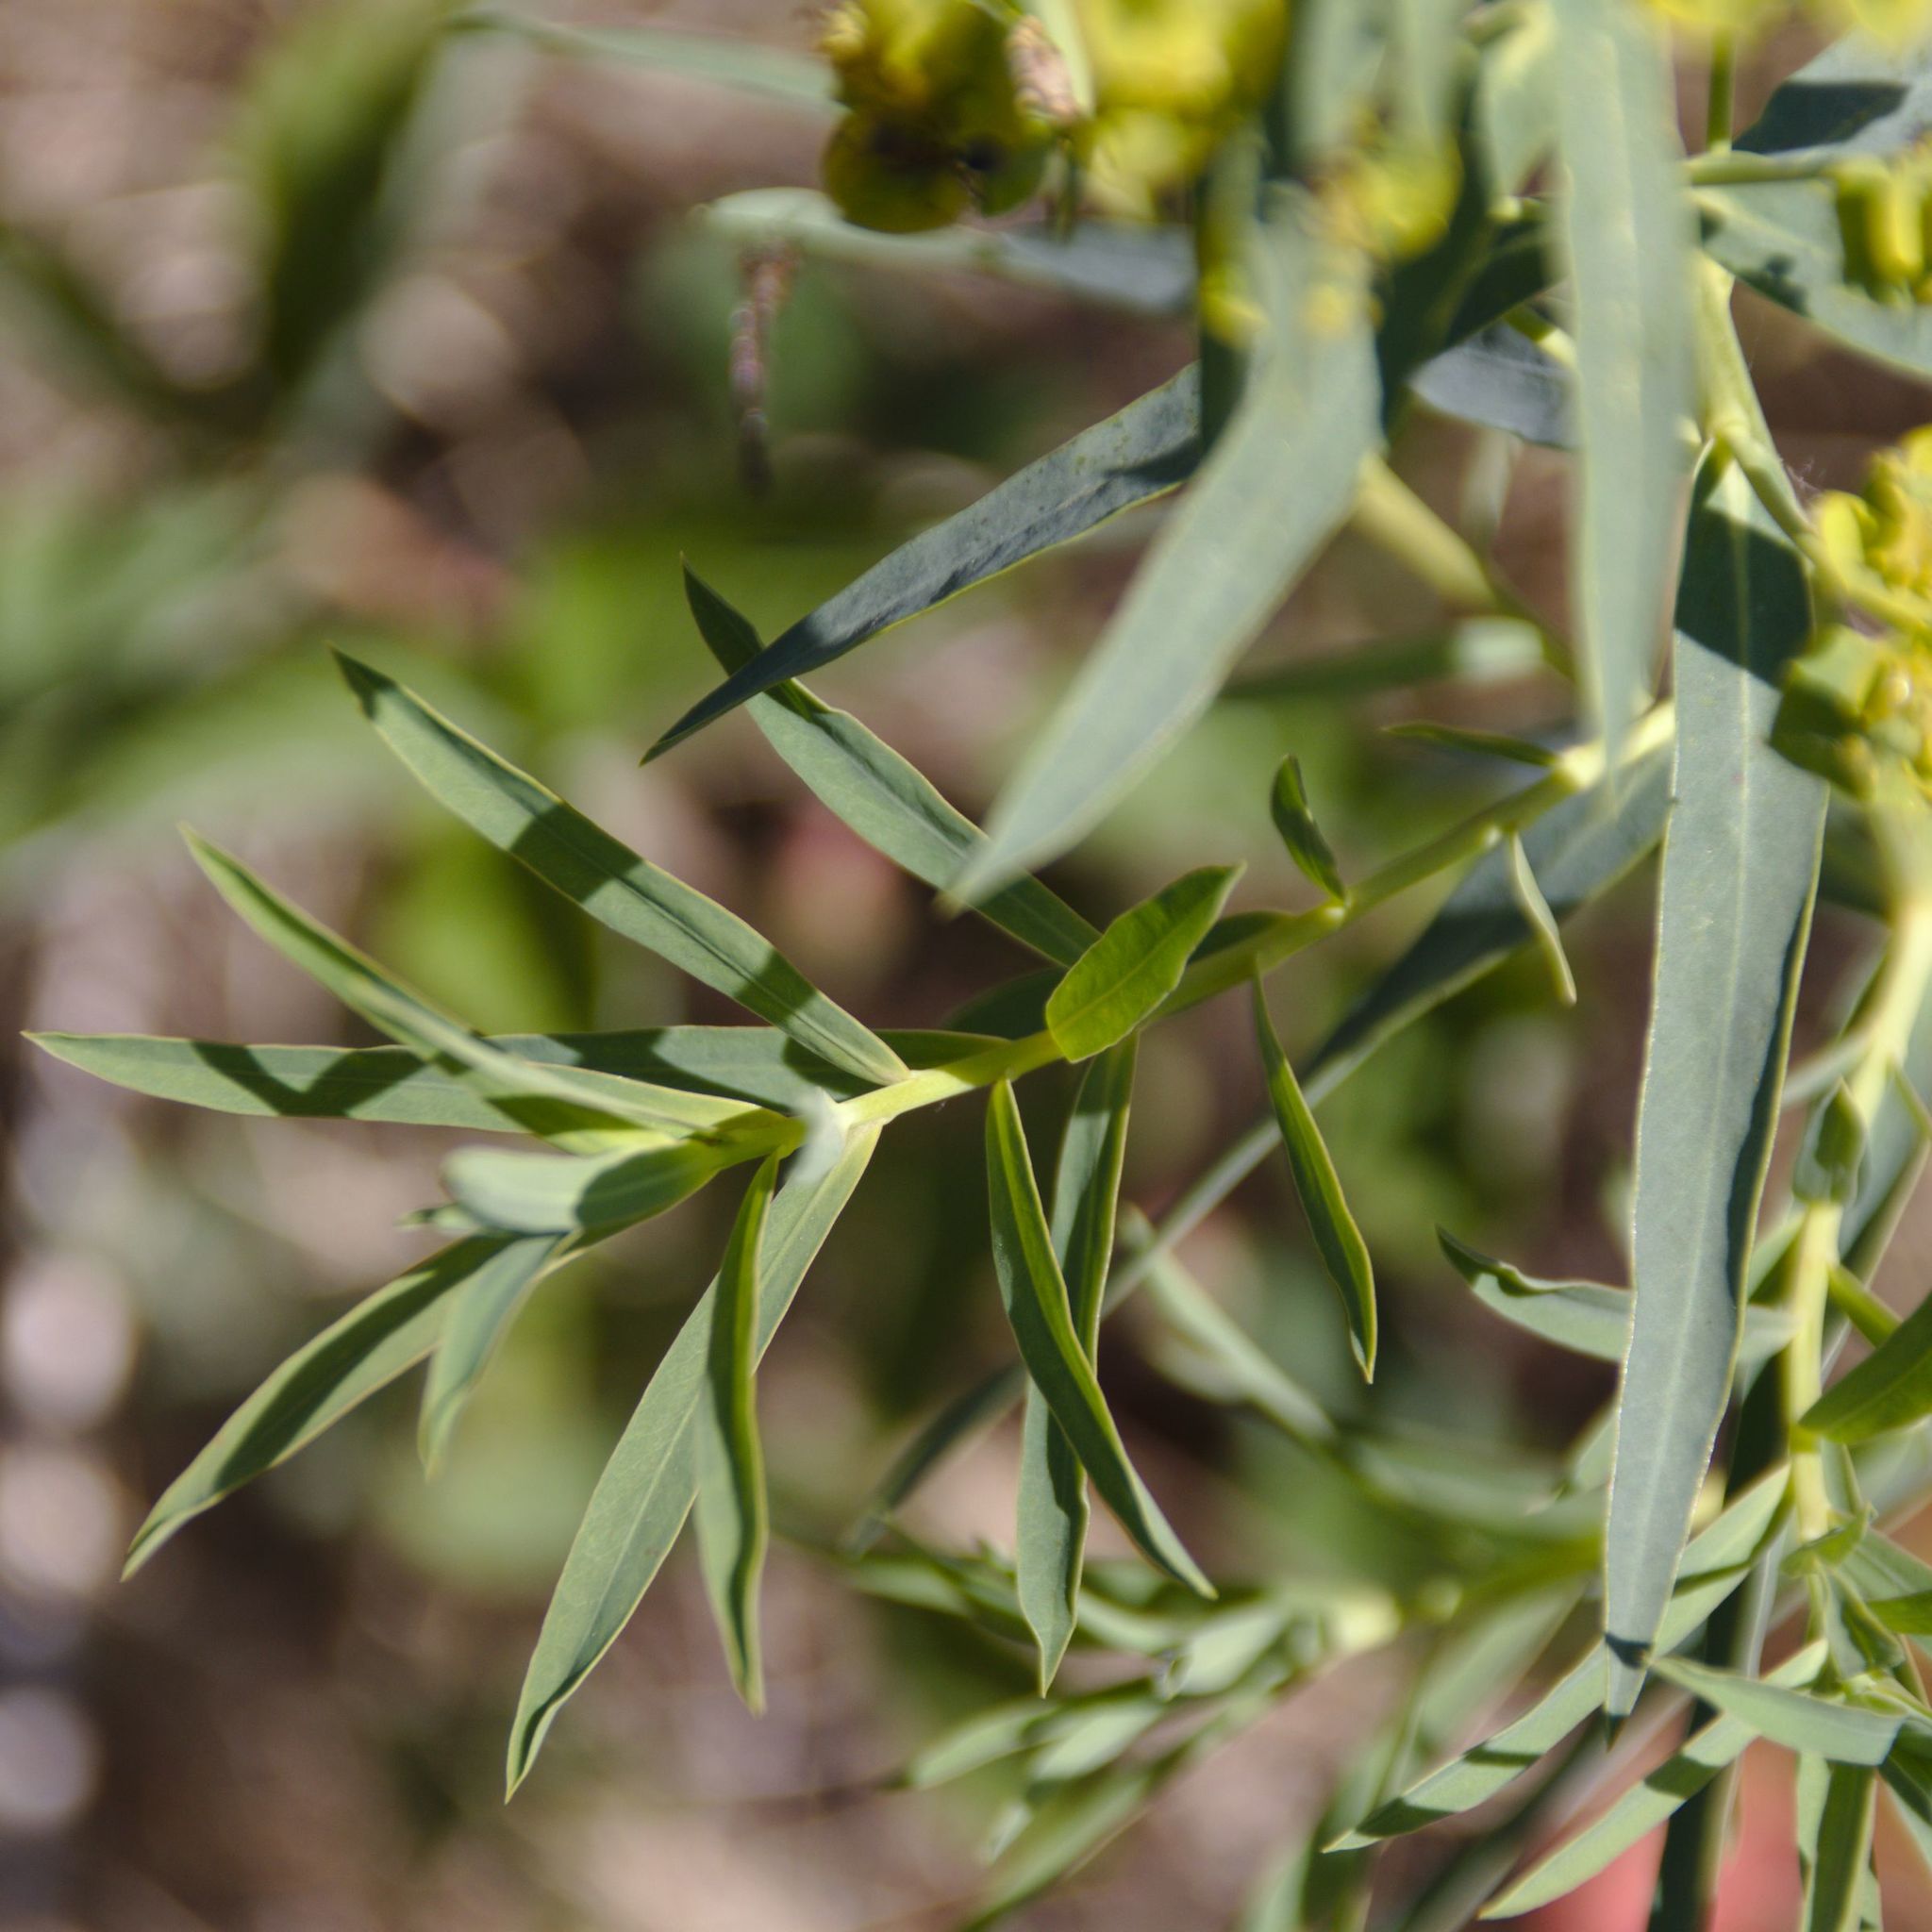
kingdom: Plantae
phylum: Tracheophyta
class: Magnoliopsida
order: Malpighiales
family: Euphorbiaceae
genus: Euphorbia
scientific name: Euphorbia virgata
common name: Leafy spurge
